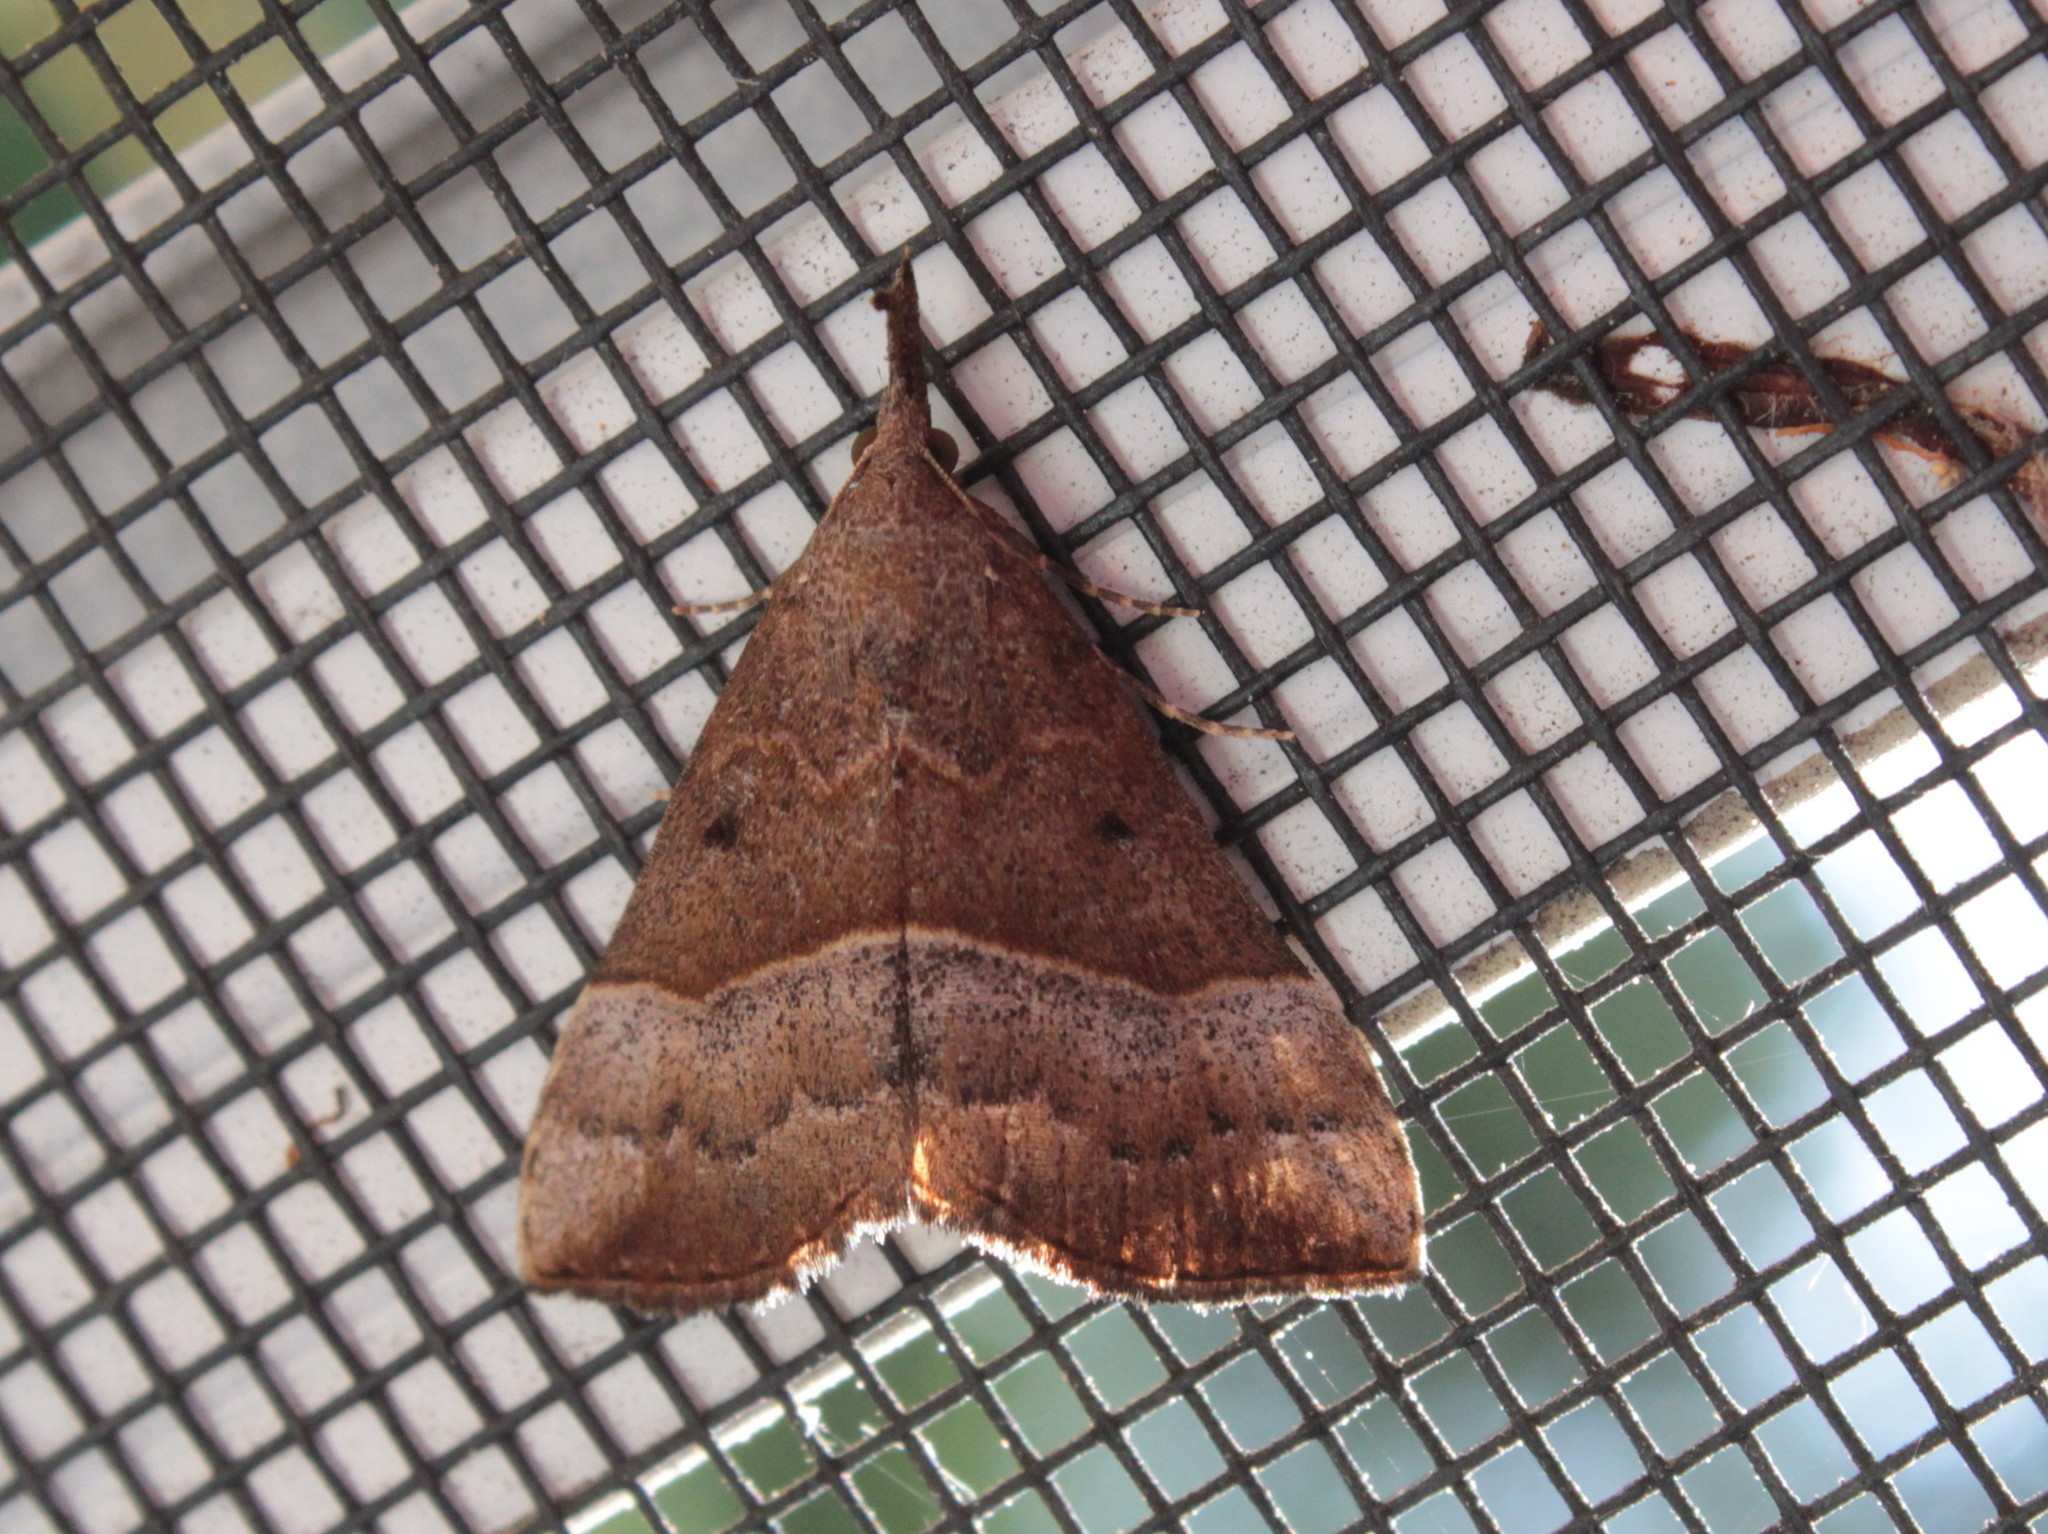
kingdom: Animalia
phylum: Arthropoda
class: Insecta
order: Lepidoptera
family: Erebidae
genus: Hypena
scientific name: Hypena eductalis
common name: Red-footed snout
